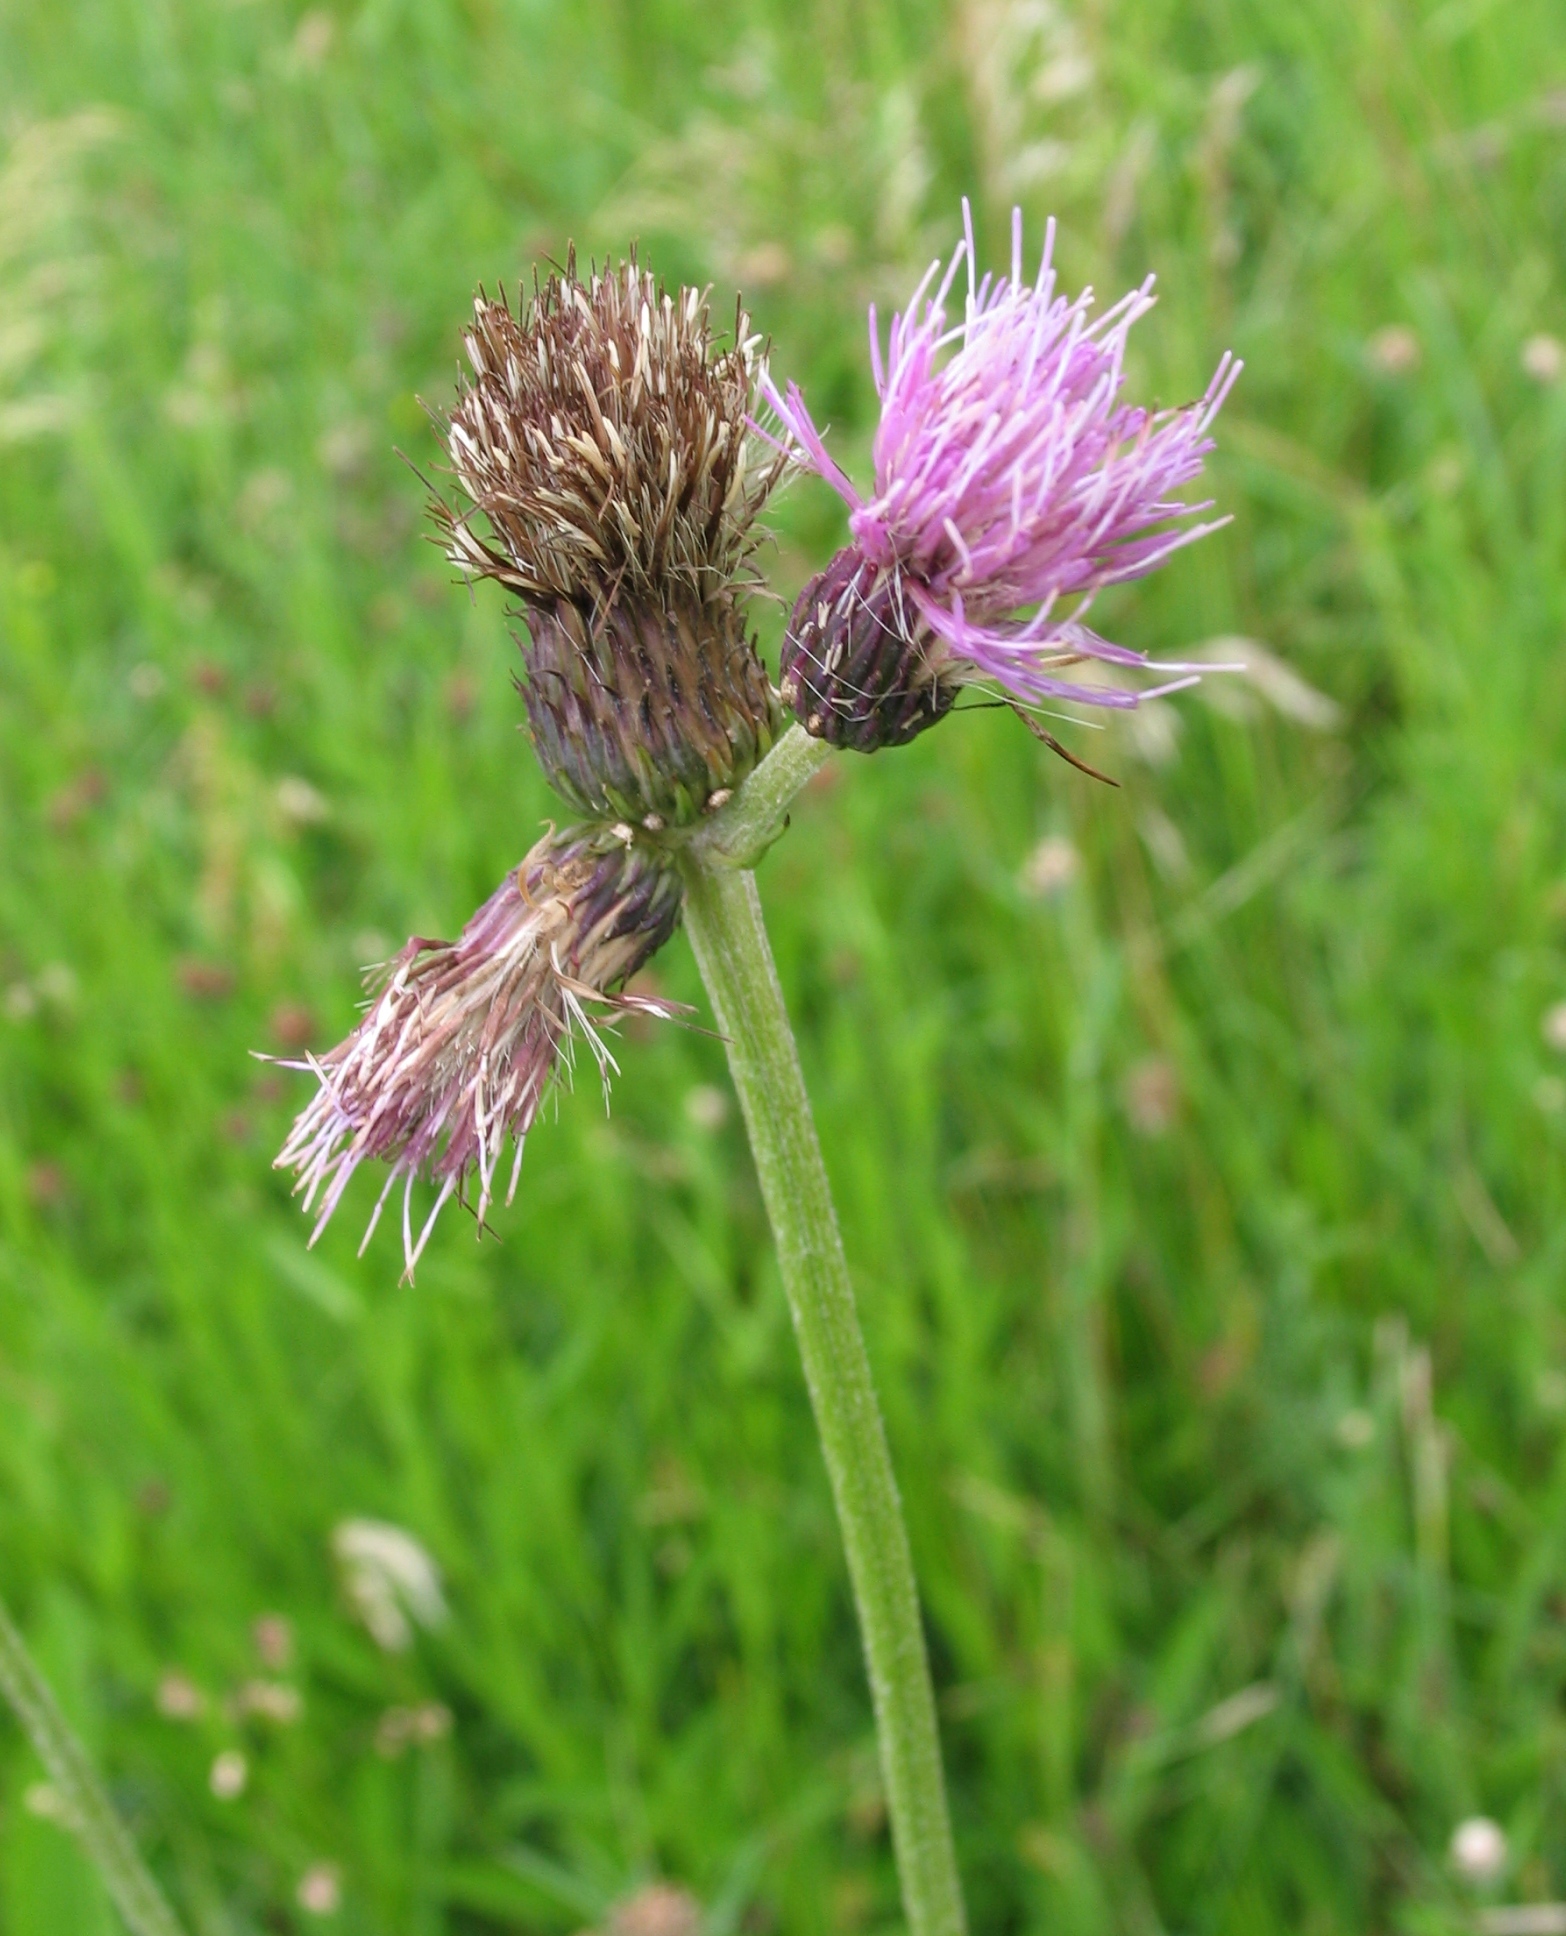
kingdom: Plantae
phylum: Tracheophyta
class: Magnoliopsida
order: Asterales
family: Asteraceae
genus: Cirsium
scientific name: Cirsium rivulare
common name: Brook thistle
